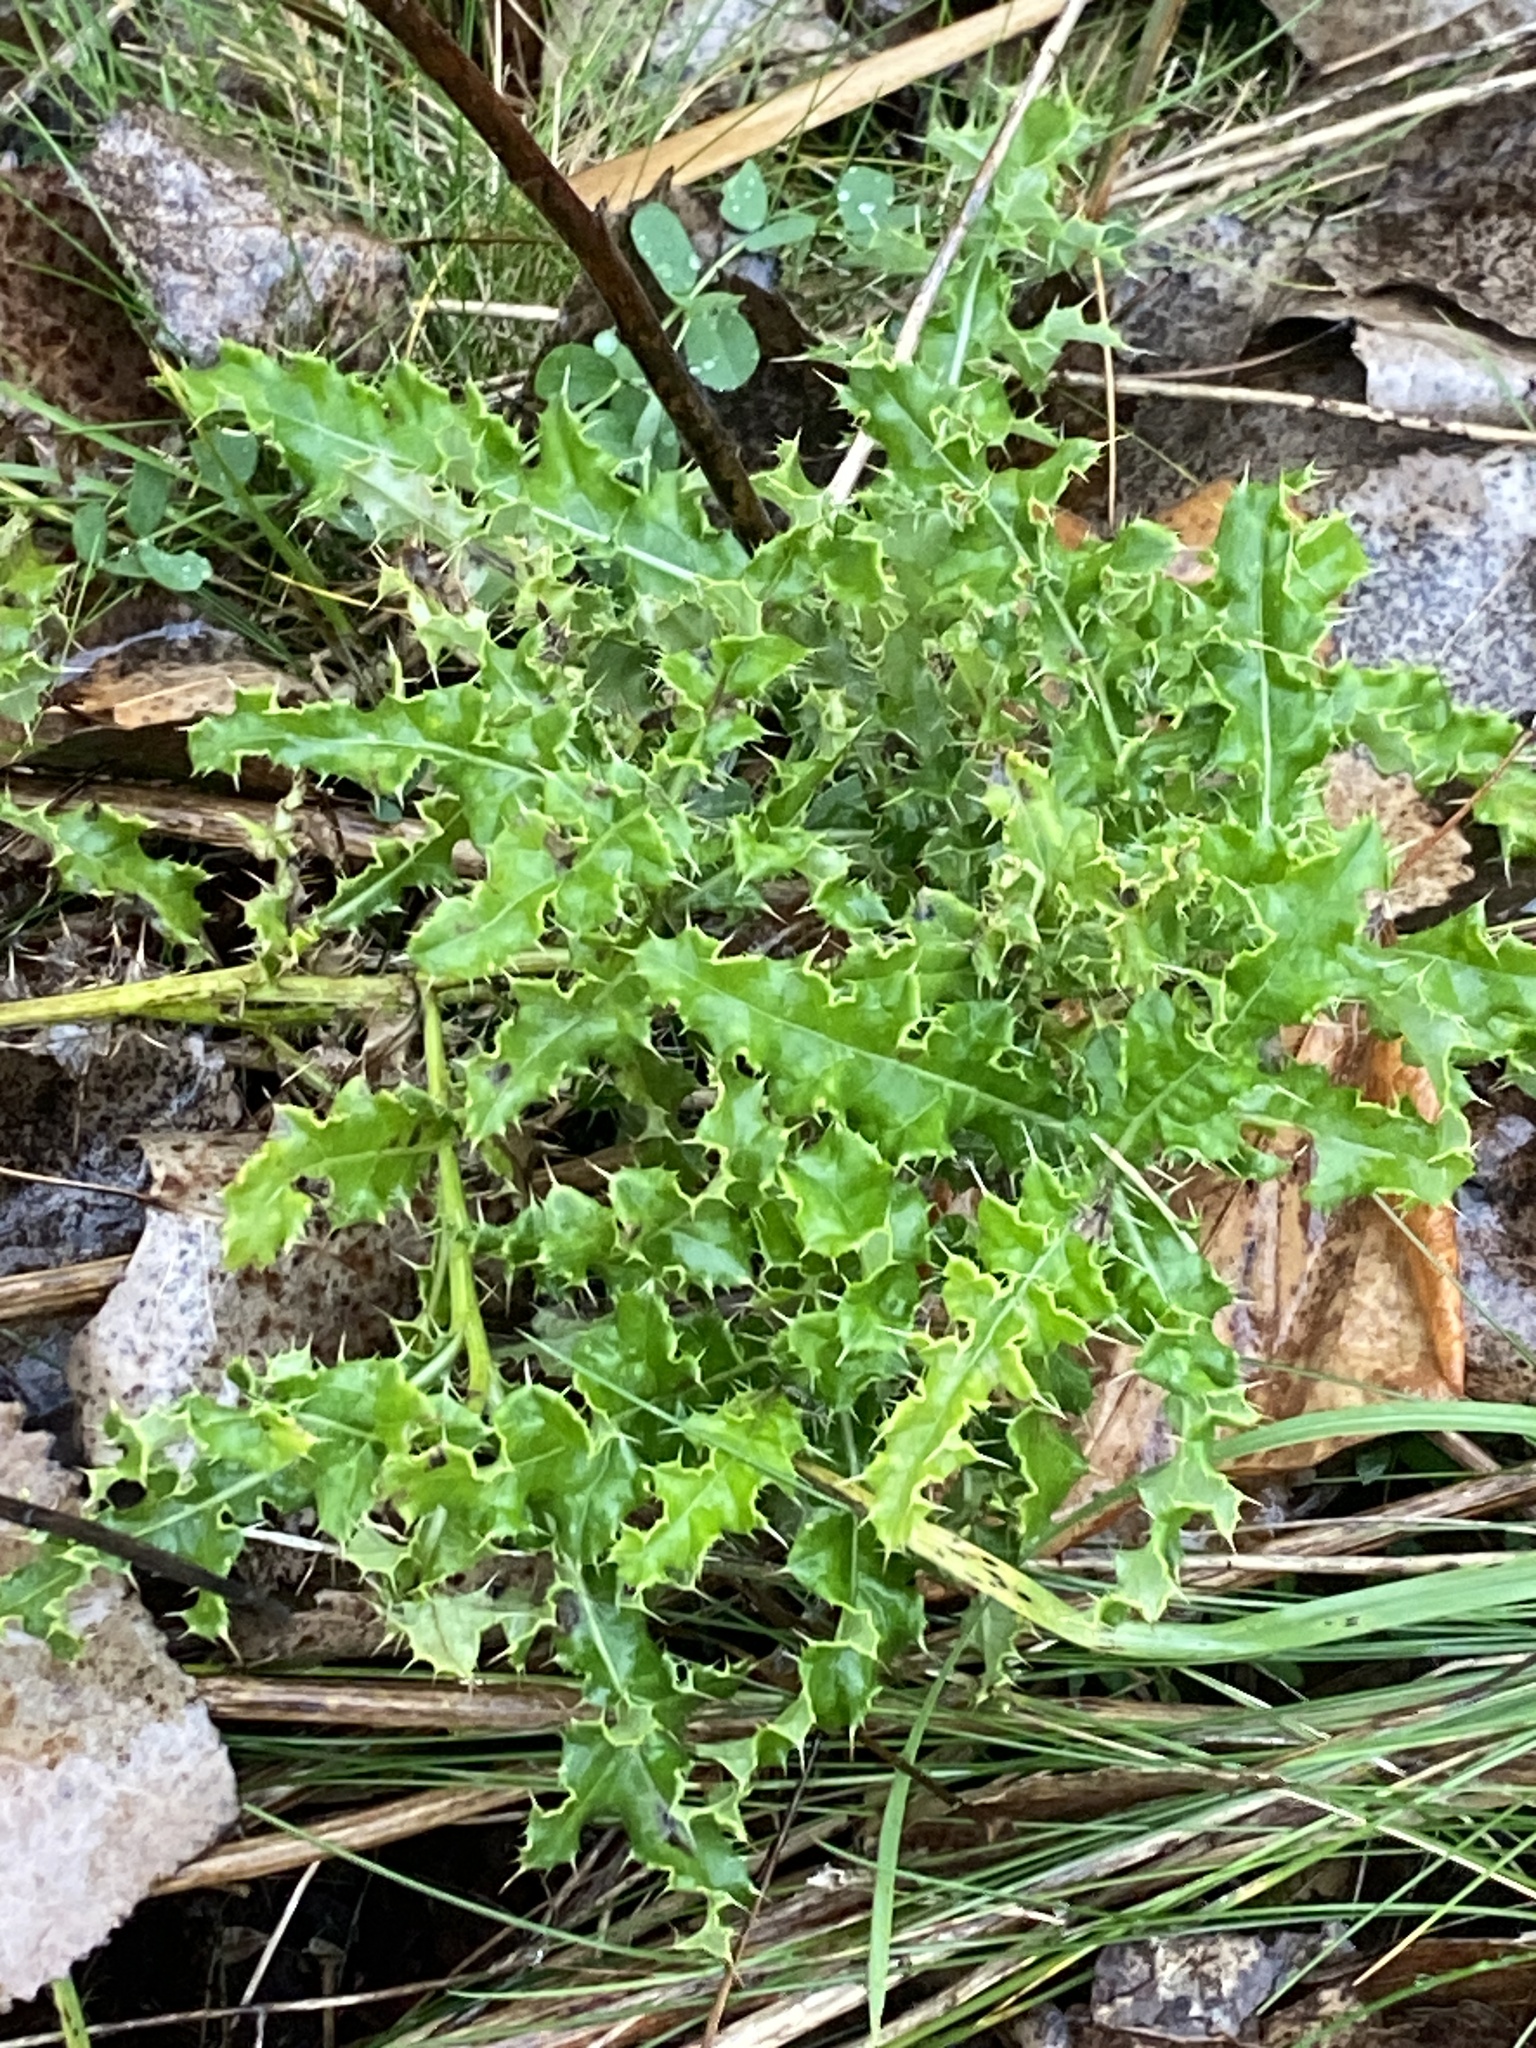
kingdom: Plantae
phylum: Tracheophyta
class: Magnoliopsida
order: Asterales
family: Asteraceae
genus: Cirsium
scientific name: Cirsium arvense
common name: Creeping thistle
